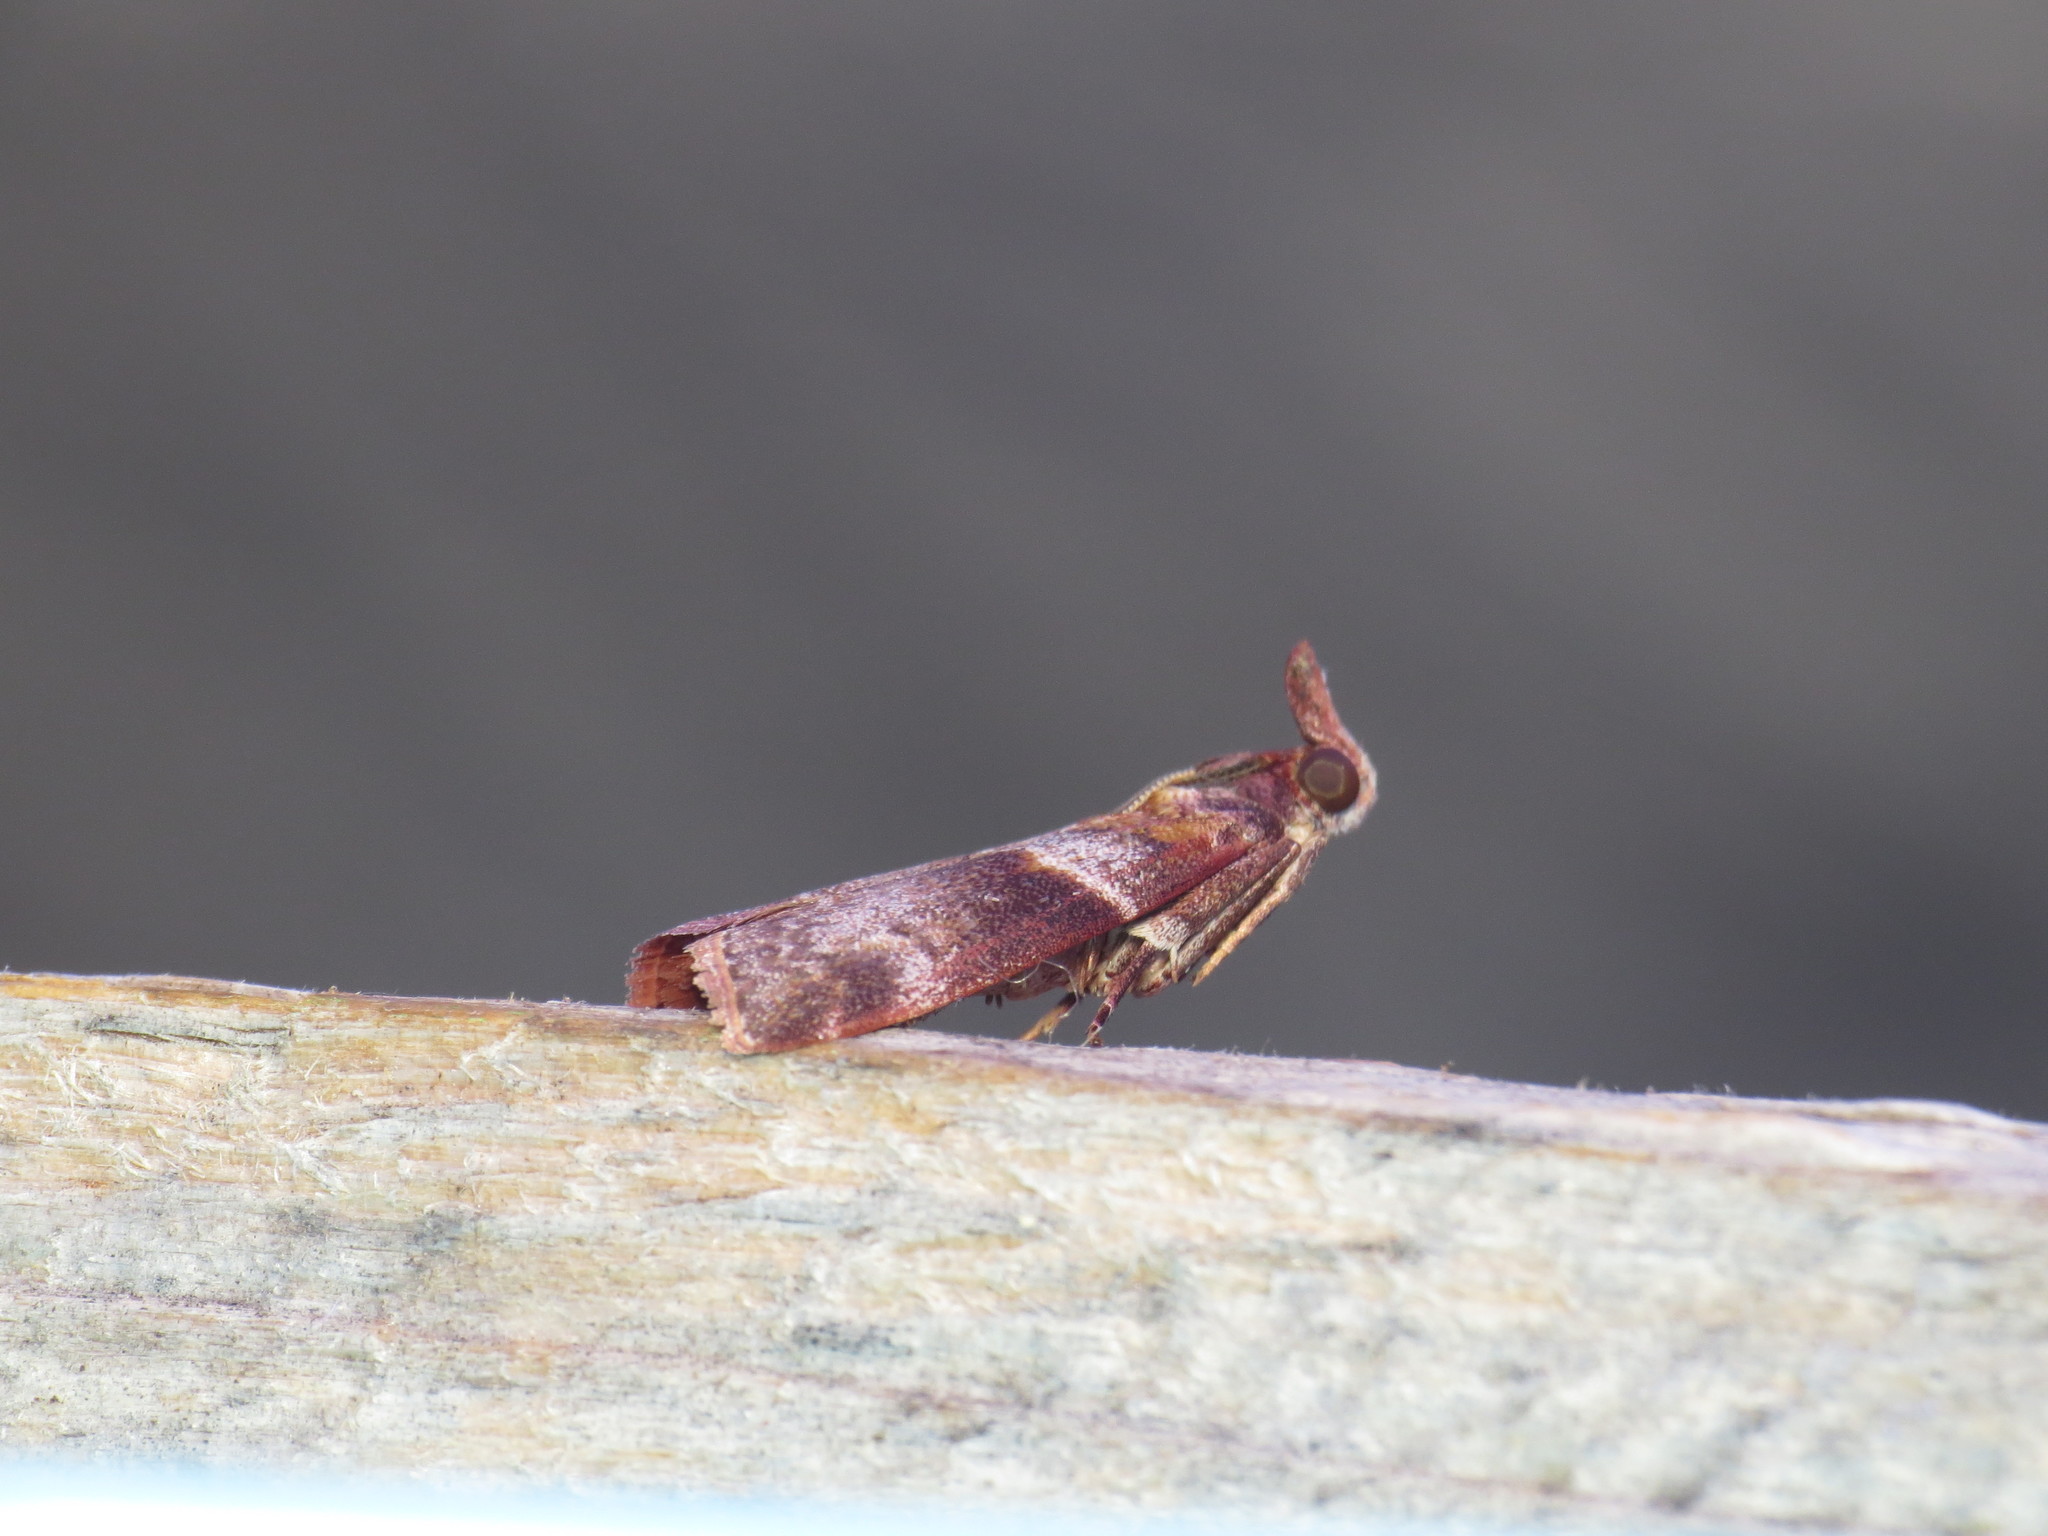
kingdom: Animalia
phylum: Arthropoda
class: Insecta
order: Lepidoptera
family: Pyralidae
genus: Calguia
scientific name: Calguia defiguralis
